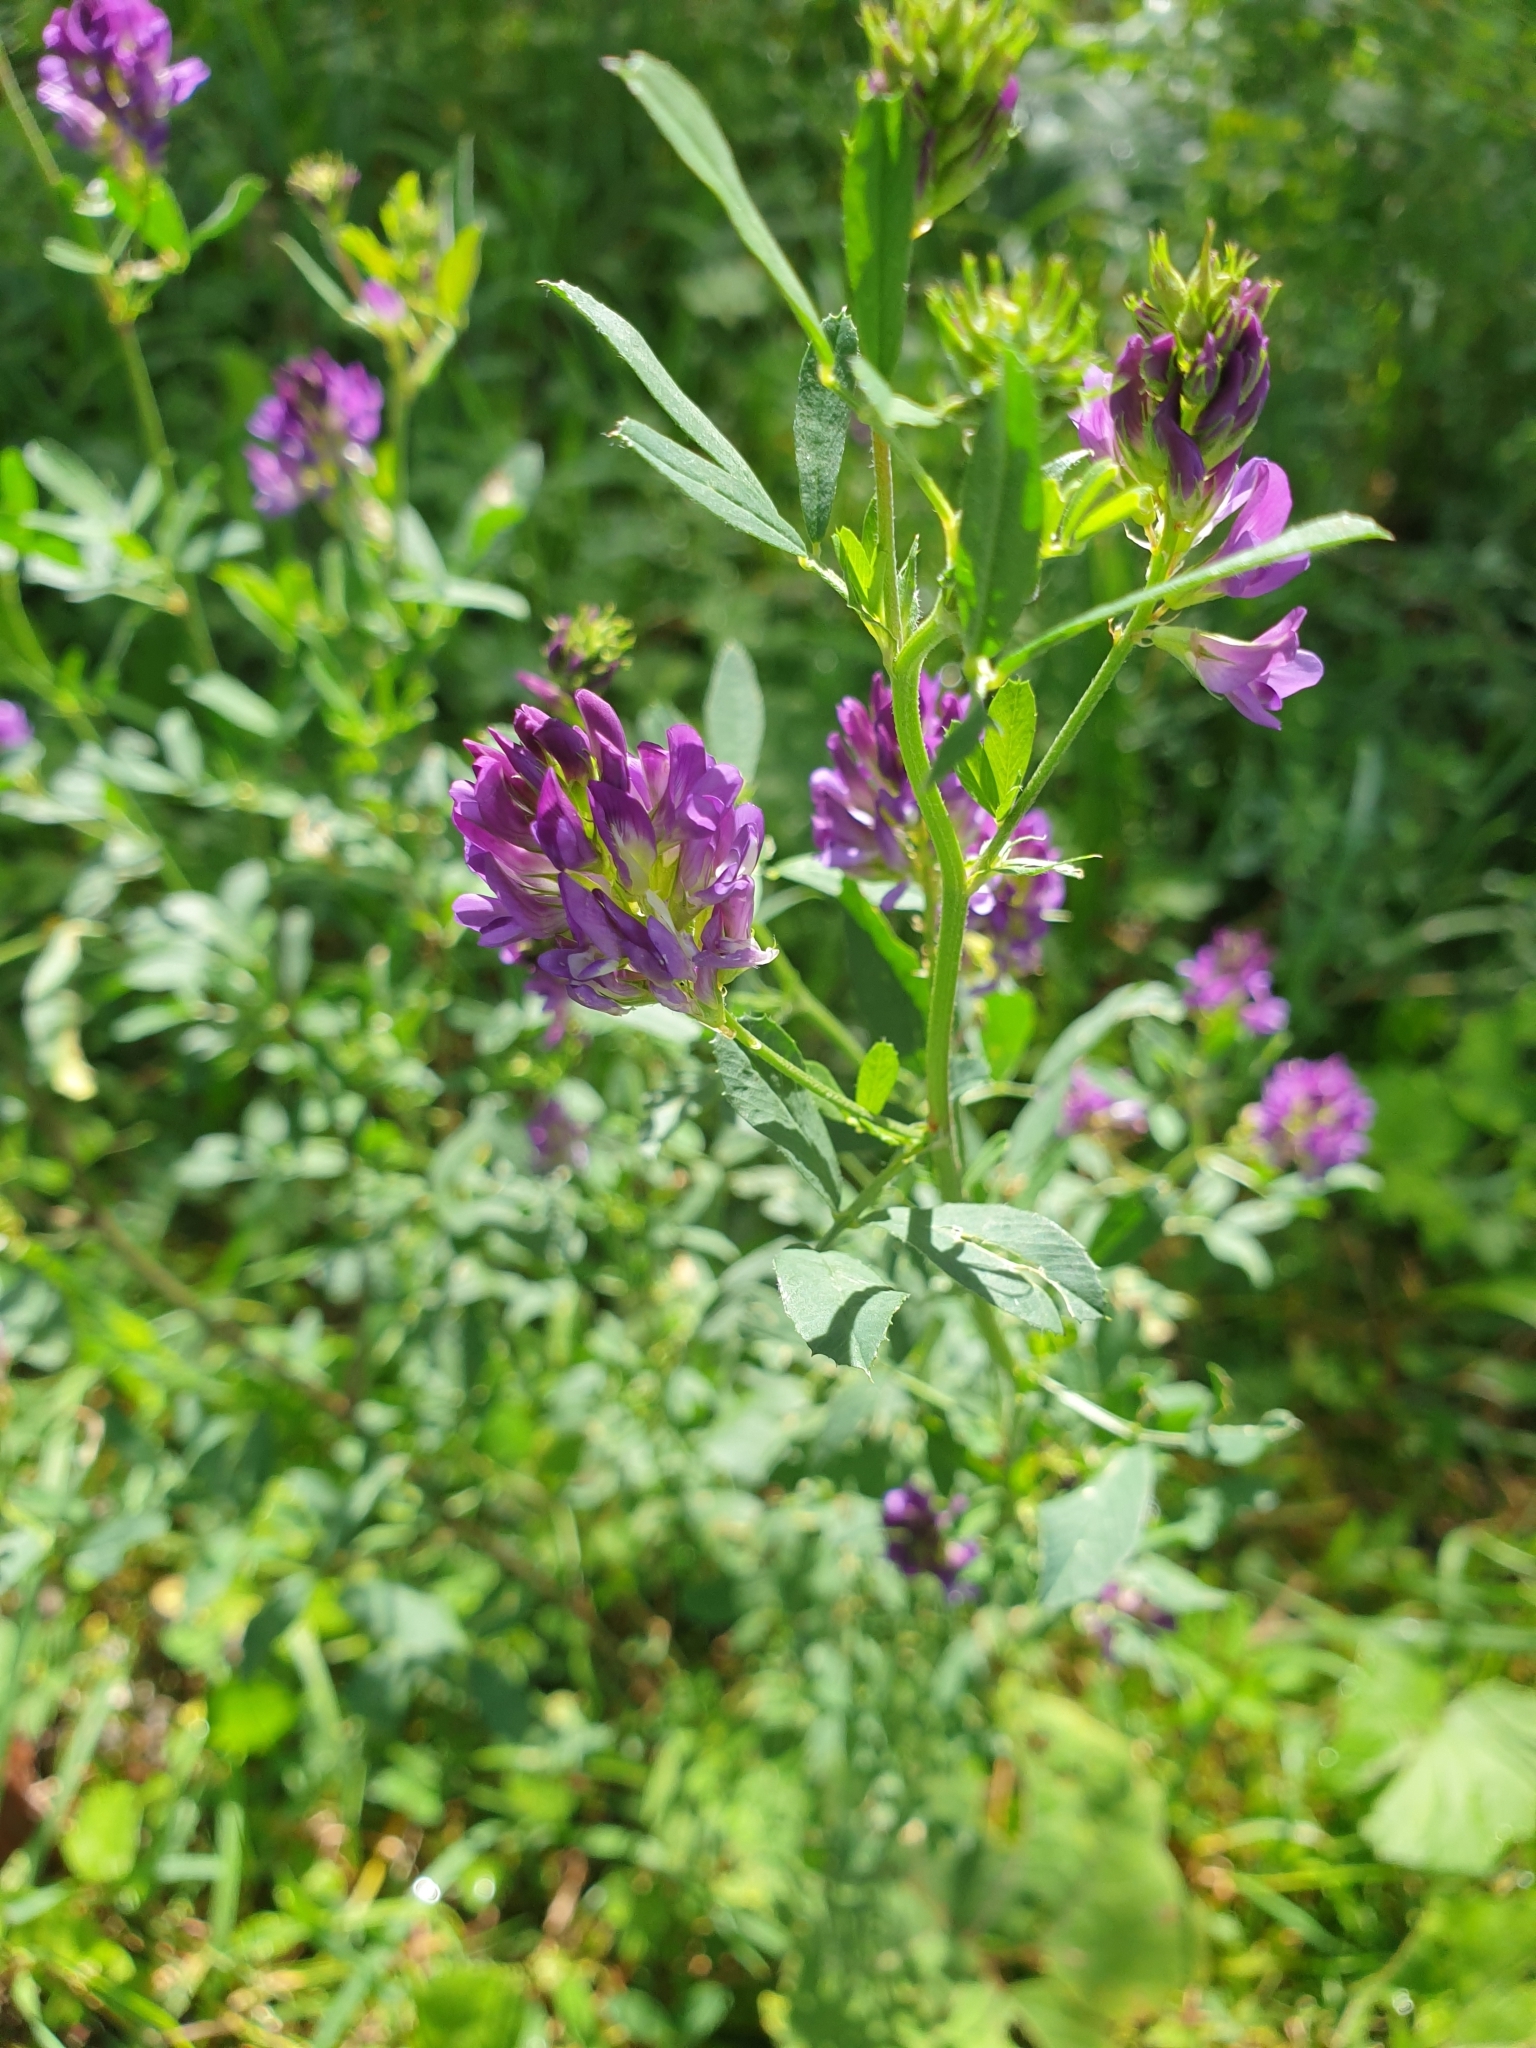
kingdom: Plantae
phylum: Tracheophyta
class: Magnoliopsida
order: Fabales
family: Fabaceae
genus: Medicago
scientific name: Medicago sativa
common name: Alfalfa
